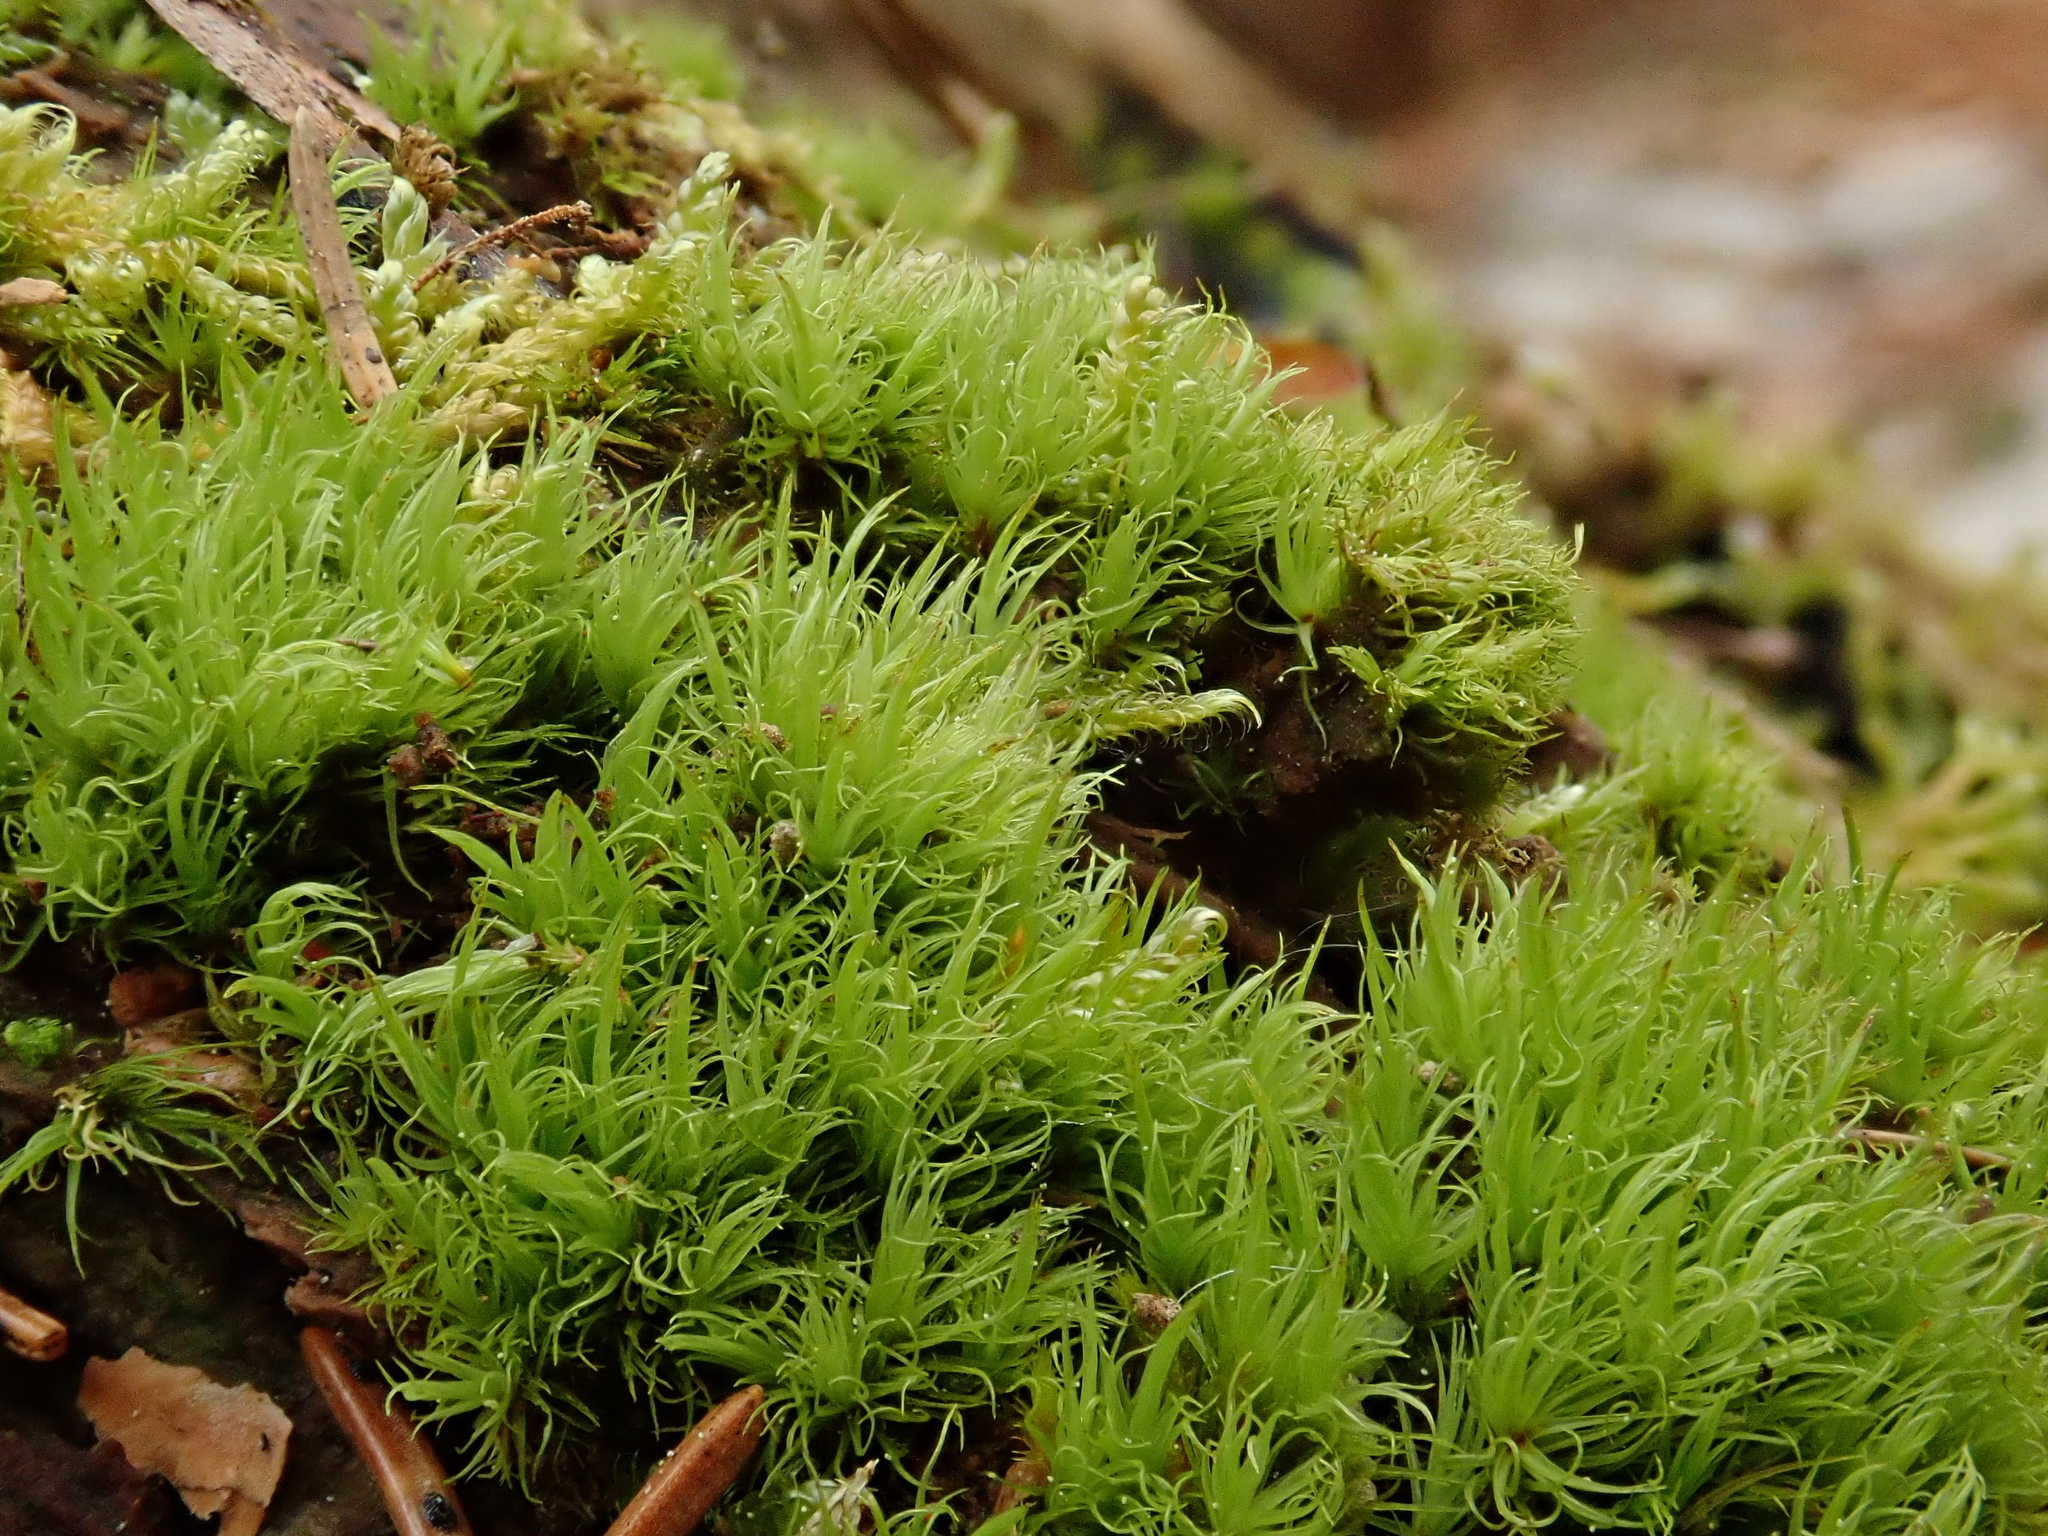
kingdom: Plantae
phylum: Bryophyta
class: Bryopsida
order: Dicranales
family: Dicranaceae
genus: Orthodicranum
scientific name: Orthodicranum montanum
